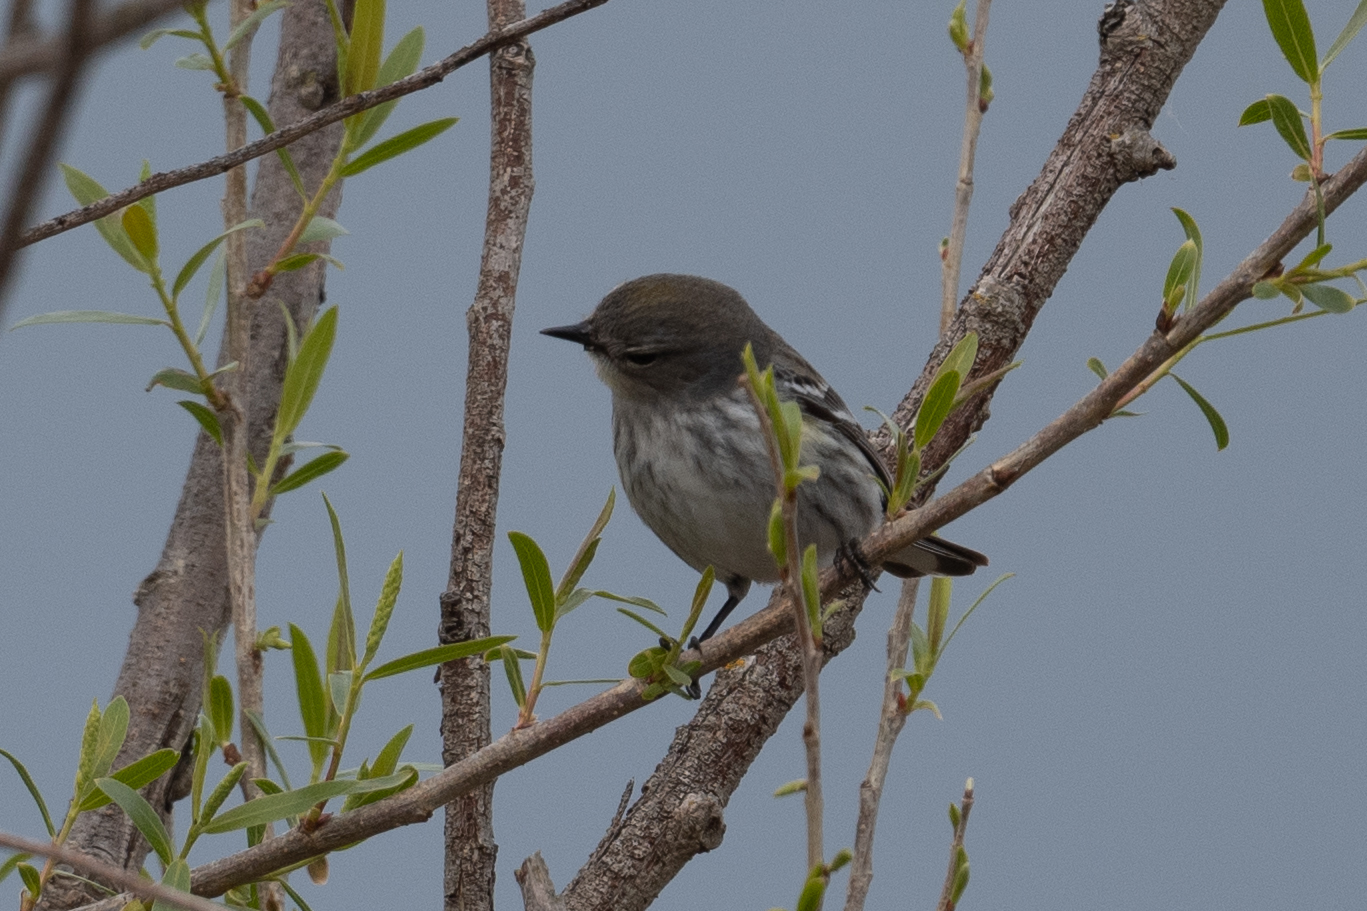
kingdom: Animalia
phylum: Chordata
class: Aves
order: Passeriformes
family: Parulidae
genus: Setophaga
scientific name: Setophaga coronata
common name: Myrtle warbler
